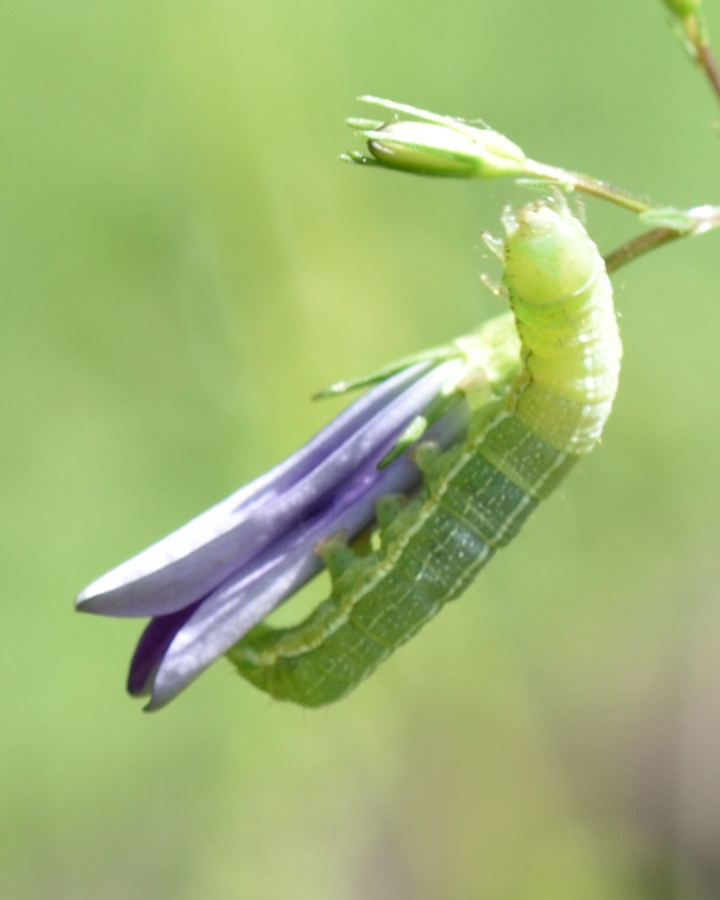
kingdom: Animalia
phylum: Arthropoda
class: Insecta
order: Lepidoptera
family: Noctuidae
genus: Orthosia
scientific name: Orthosia incerta
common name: Clouded drab
